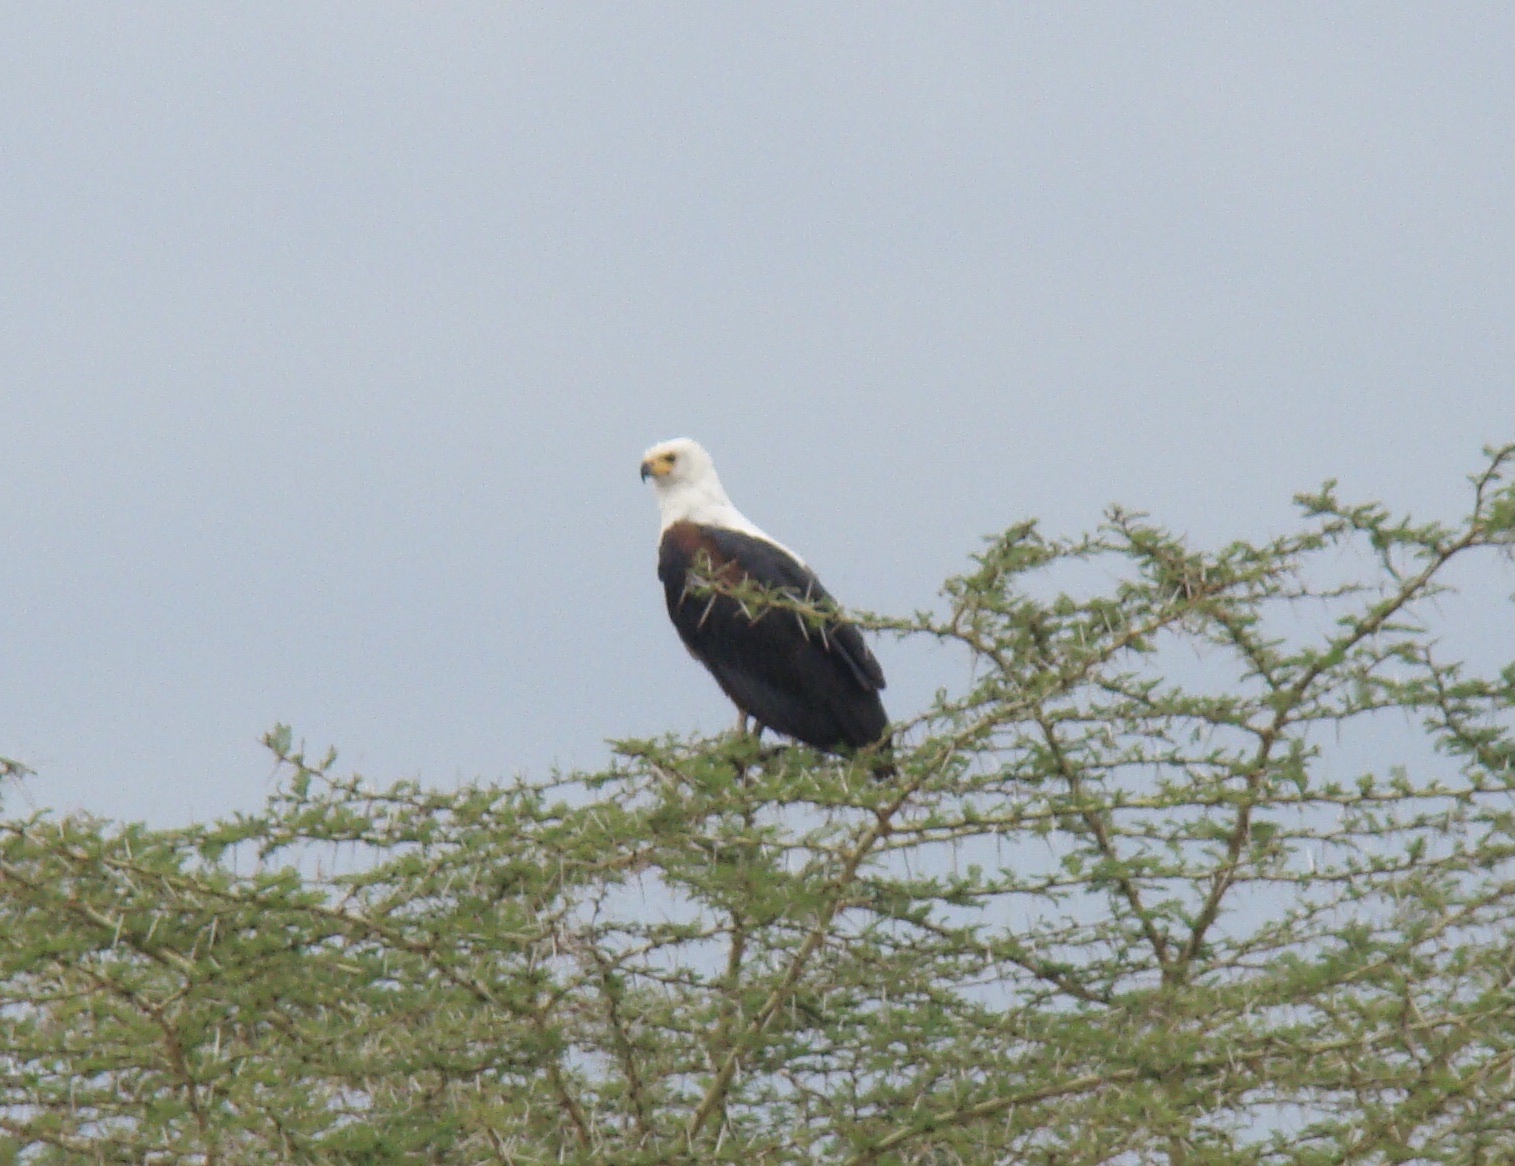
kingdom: Animalia
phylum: Chordata
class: Aves
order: Accipitriformes
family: Accipitridae
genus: Haliaeetus
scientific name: Haliaeetus vocifer
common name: African fish eagle
